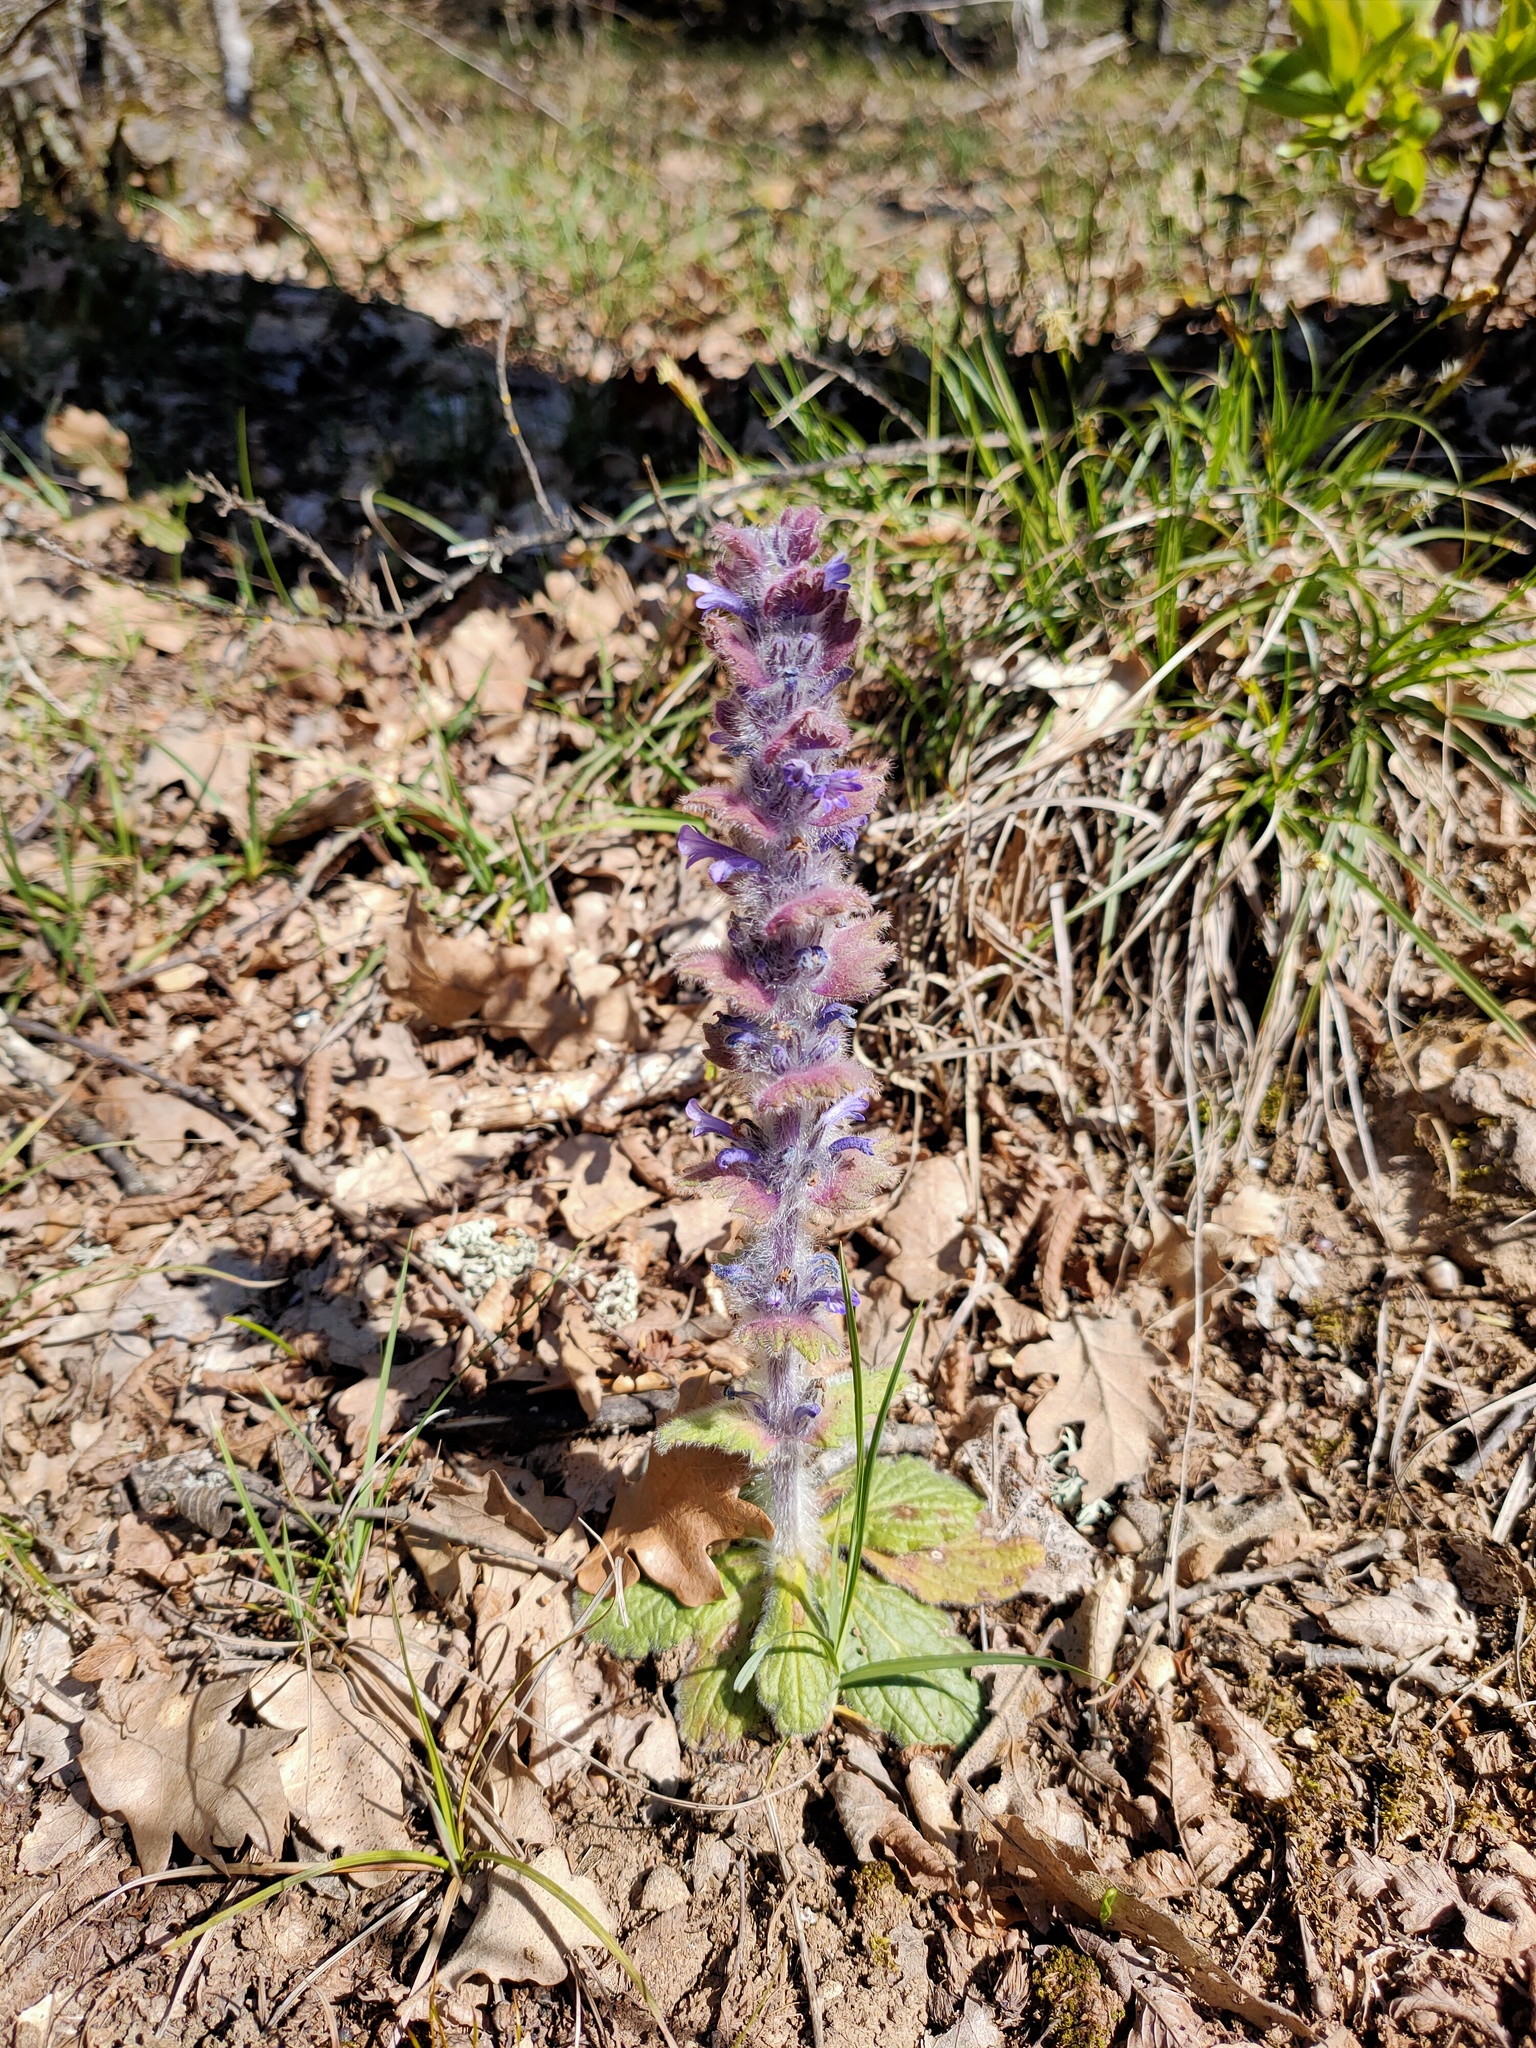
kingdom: Plantae
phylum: Tracheophyta
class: Magnoliopsida
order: Lamiales
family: Lamiaceae
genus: Ajuga
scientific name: Ajuga orientalis
